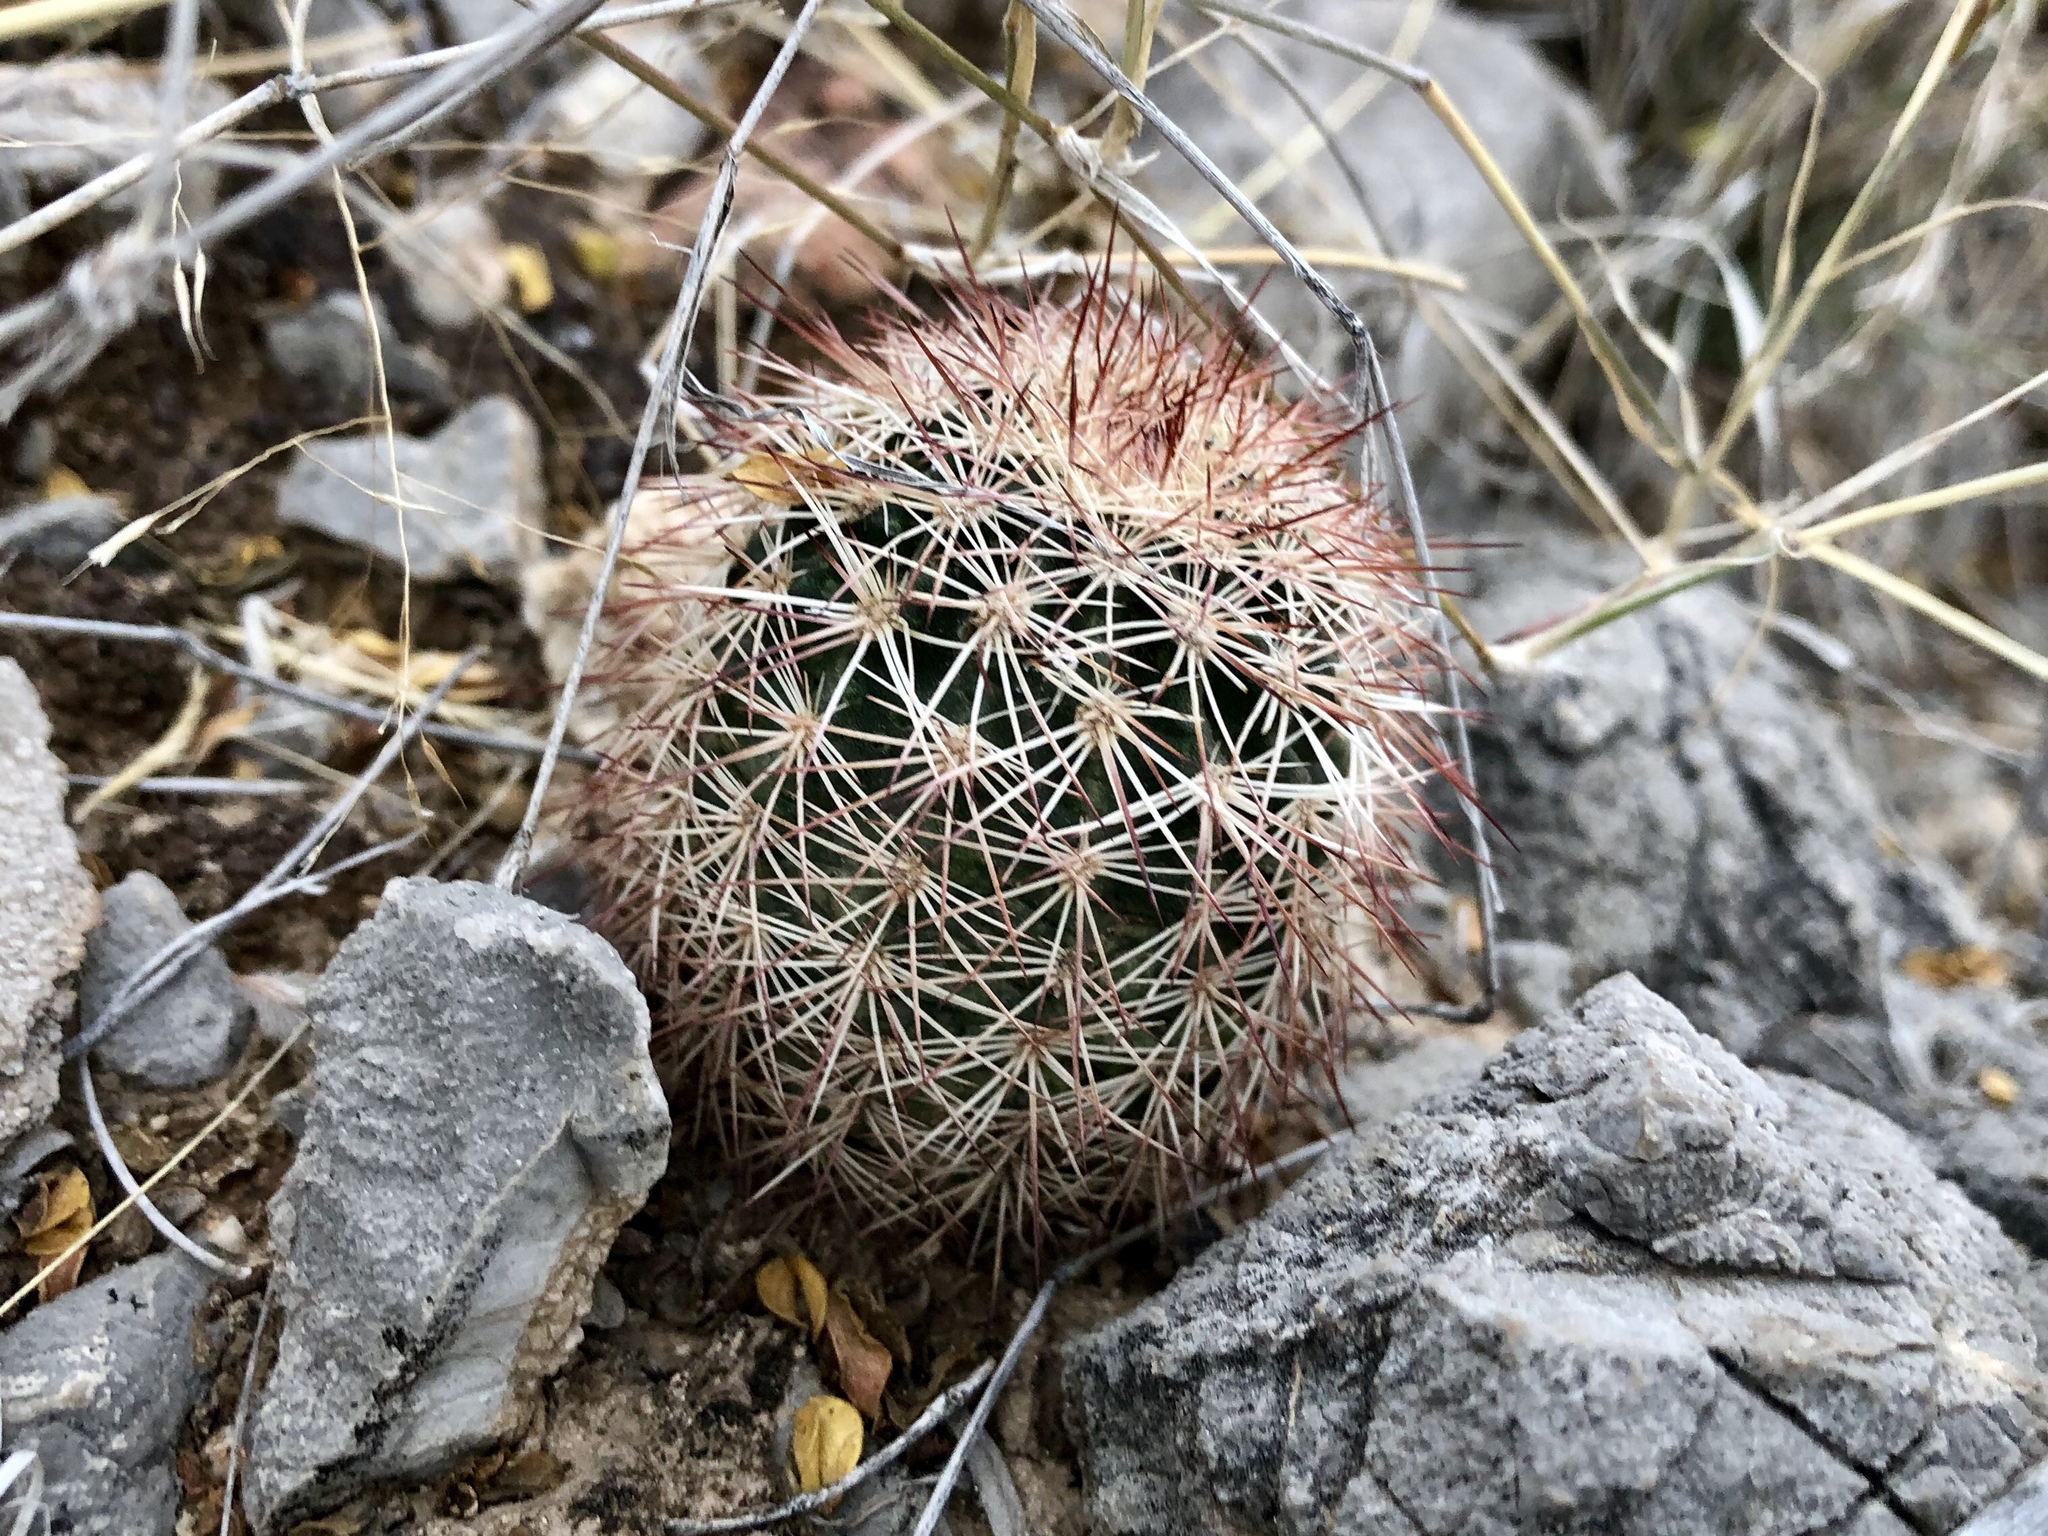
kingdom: Plantae
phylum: Tracheophyta
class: Magnoliopsida
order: Caryophyllales
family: Cactaceae
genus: Echinocereus
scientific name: Echinocereus roetteri
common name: Lloyd's hedgehog cactus
